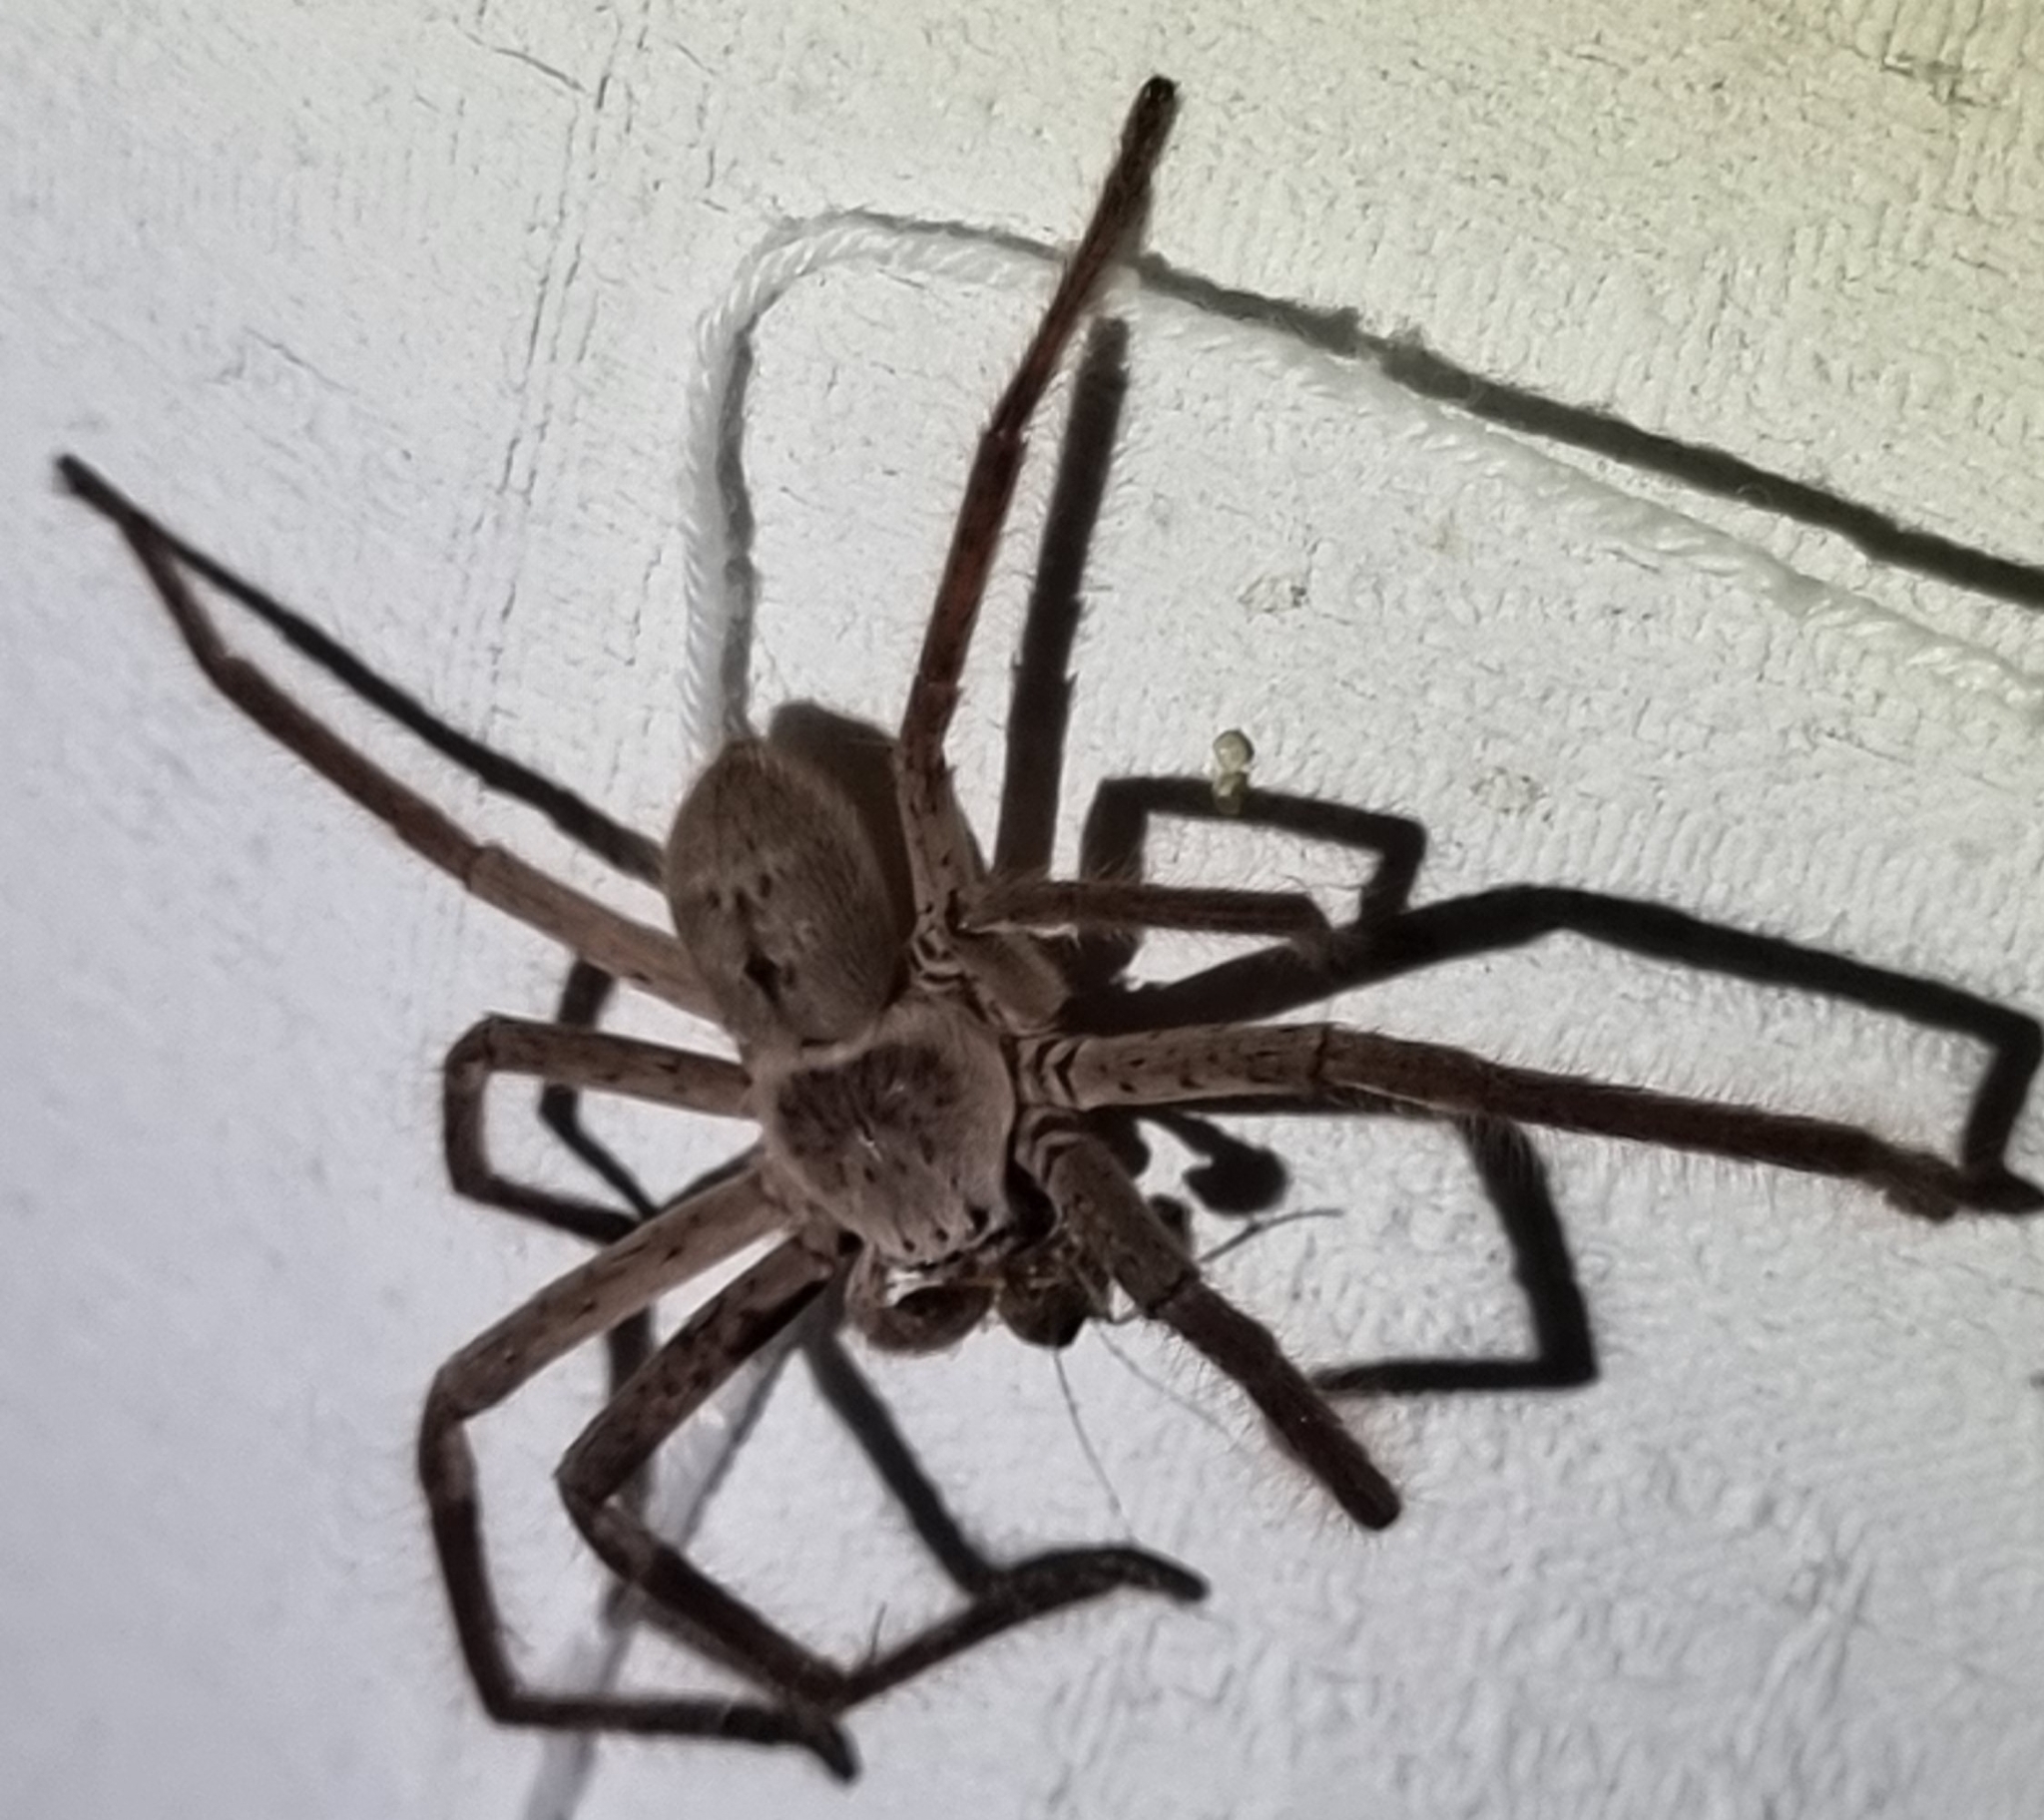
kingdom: Animalia
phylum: Arthropoda
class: Arachnida
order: Araneae
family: Sparassidae
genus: Isopeda
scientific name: Isopeda vasta
